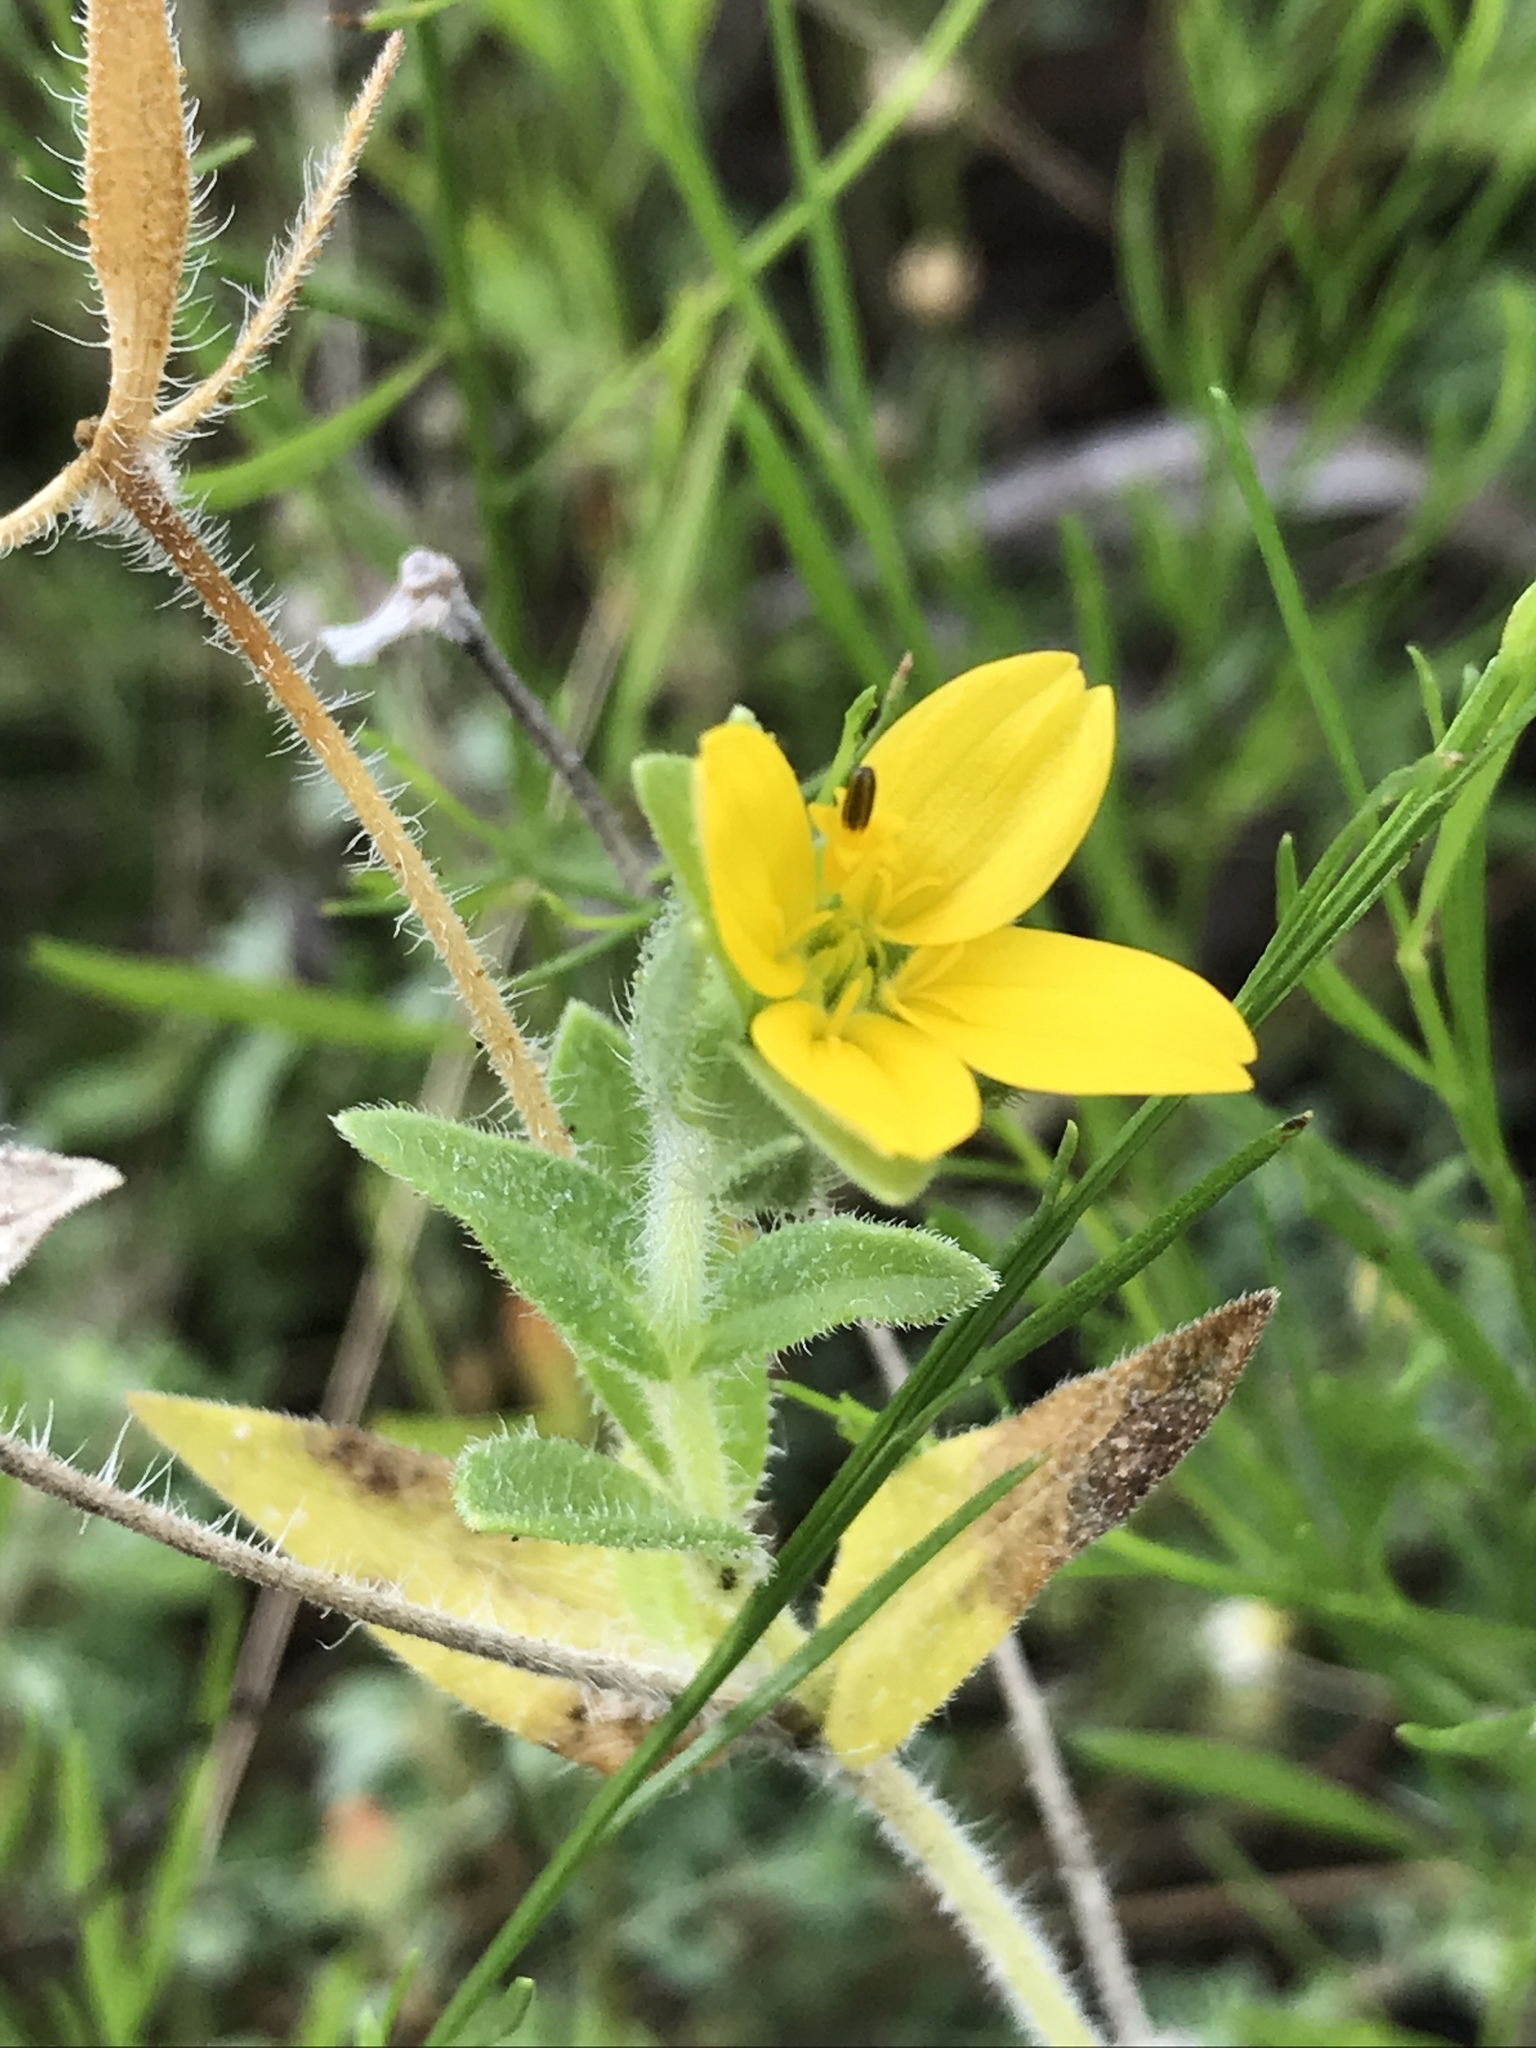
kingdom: Plantae
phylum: Tracheophyta
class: Magnoliopsida
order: Asterales
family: Asteraceae
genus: Lindheimera
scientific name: Lindheimera texana
